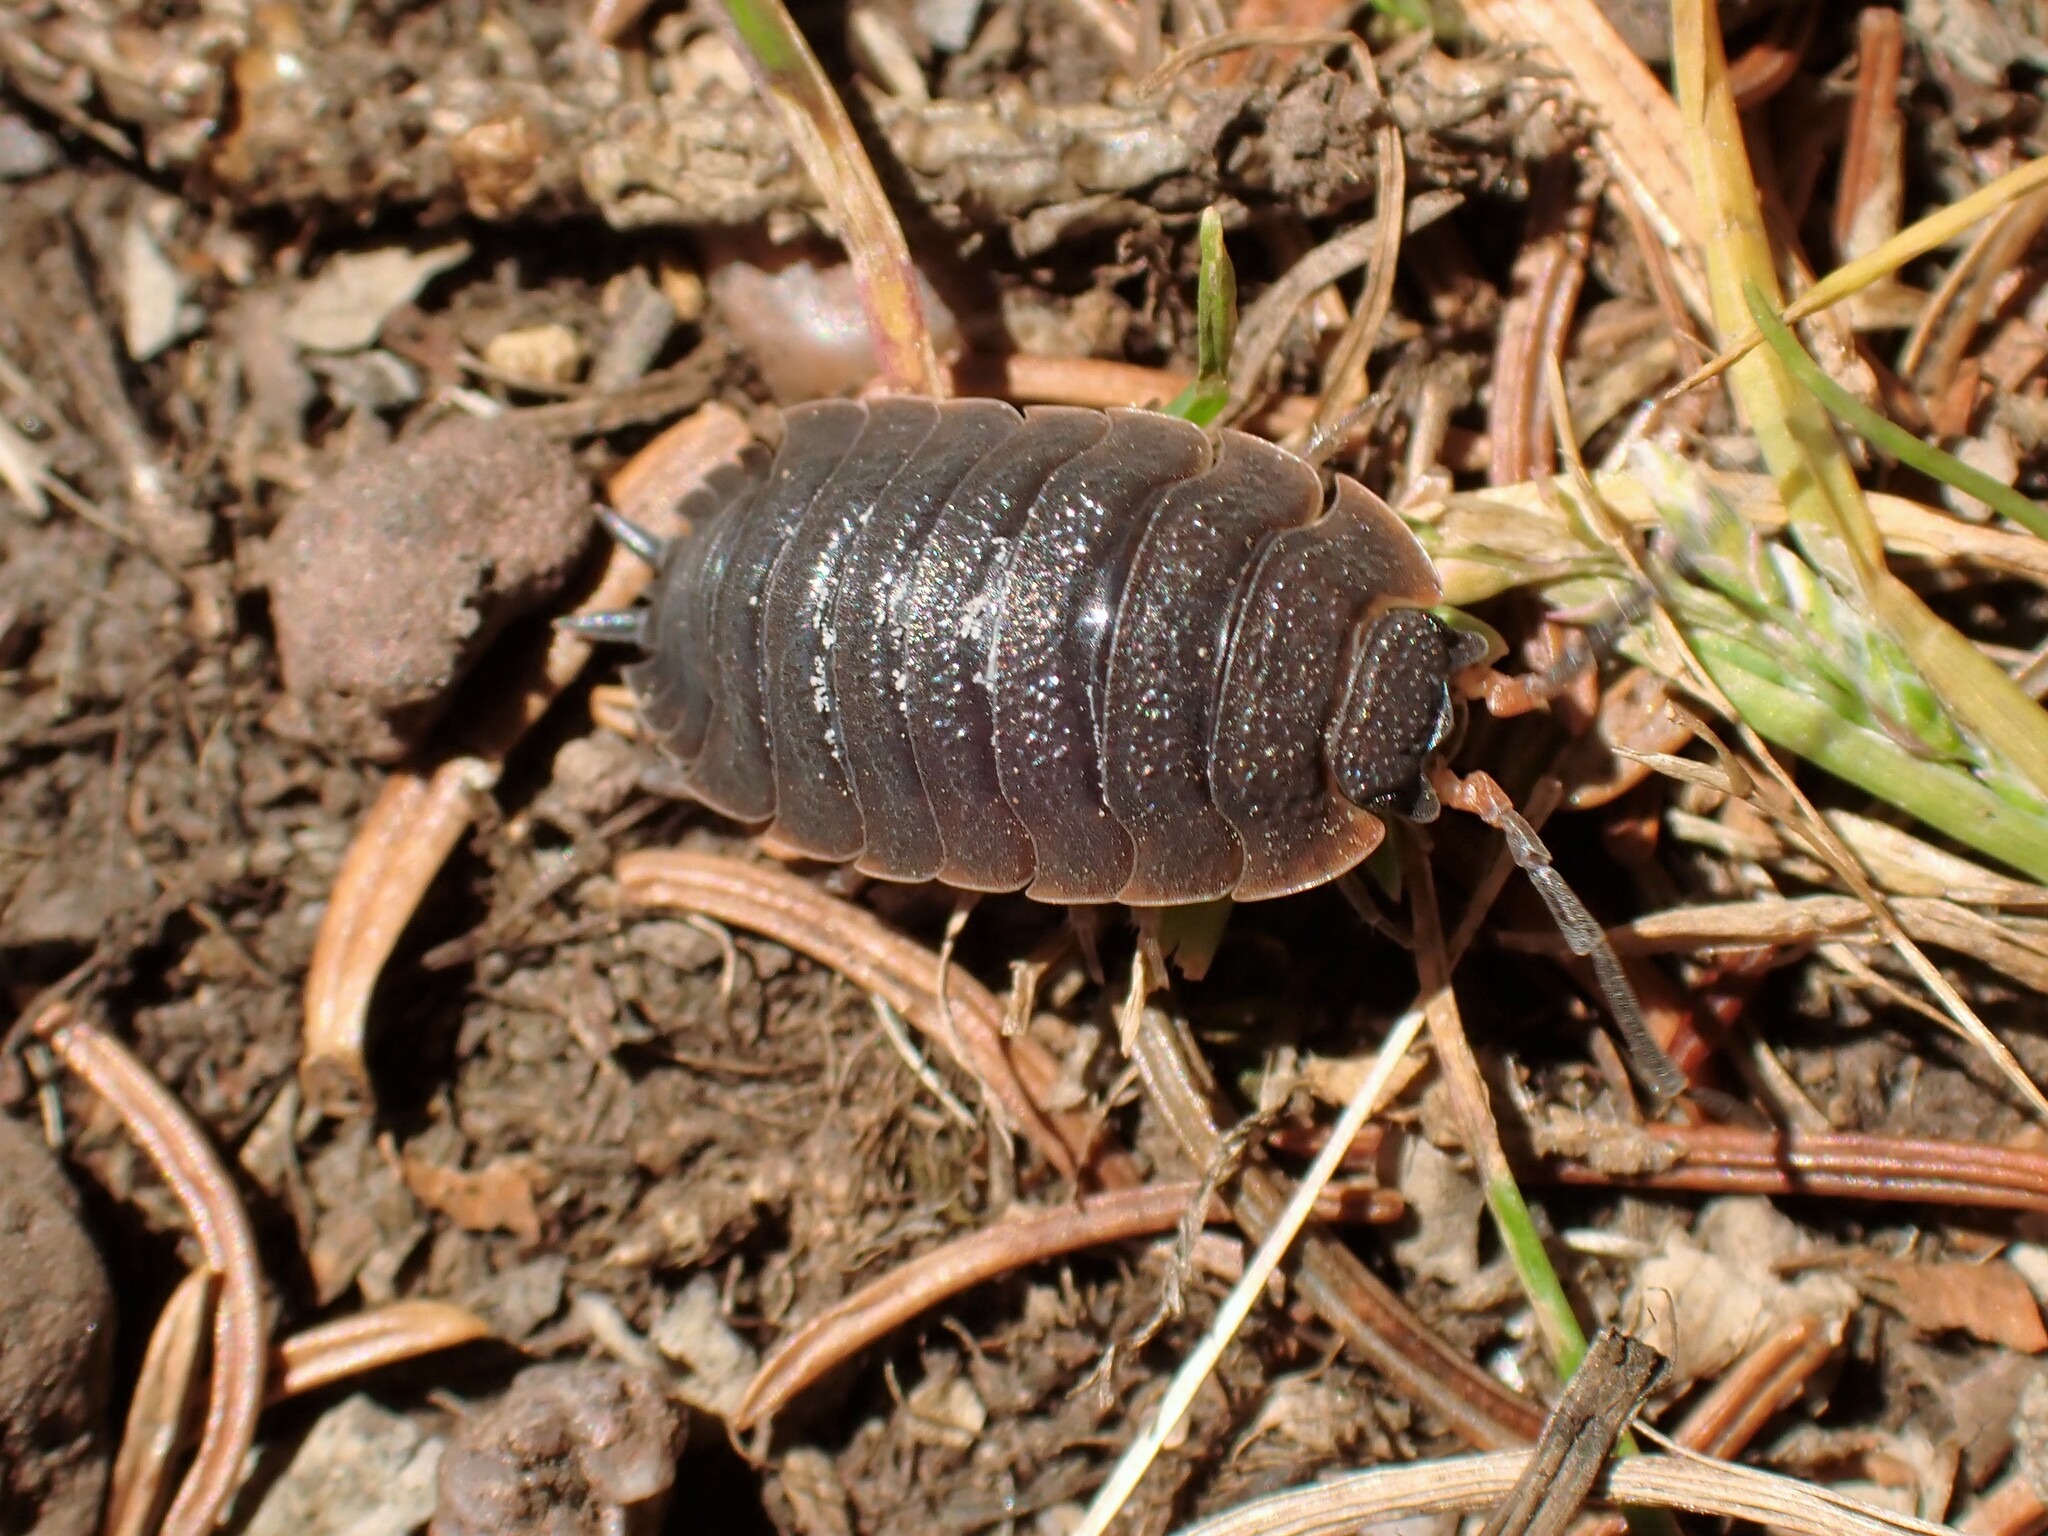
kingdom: Animalia
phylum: Arthropoda
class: Malacostraca
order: Isopoda
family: Porcellionidae
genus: Porcellio
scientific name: Porcellio scaber
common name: Common rough woodlouse
